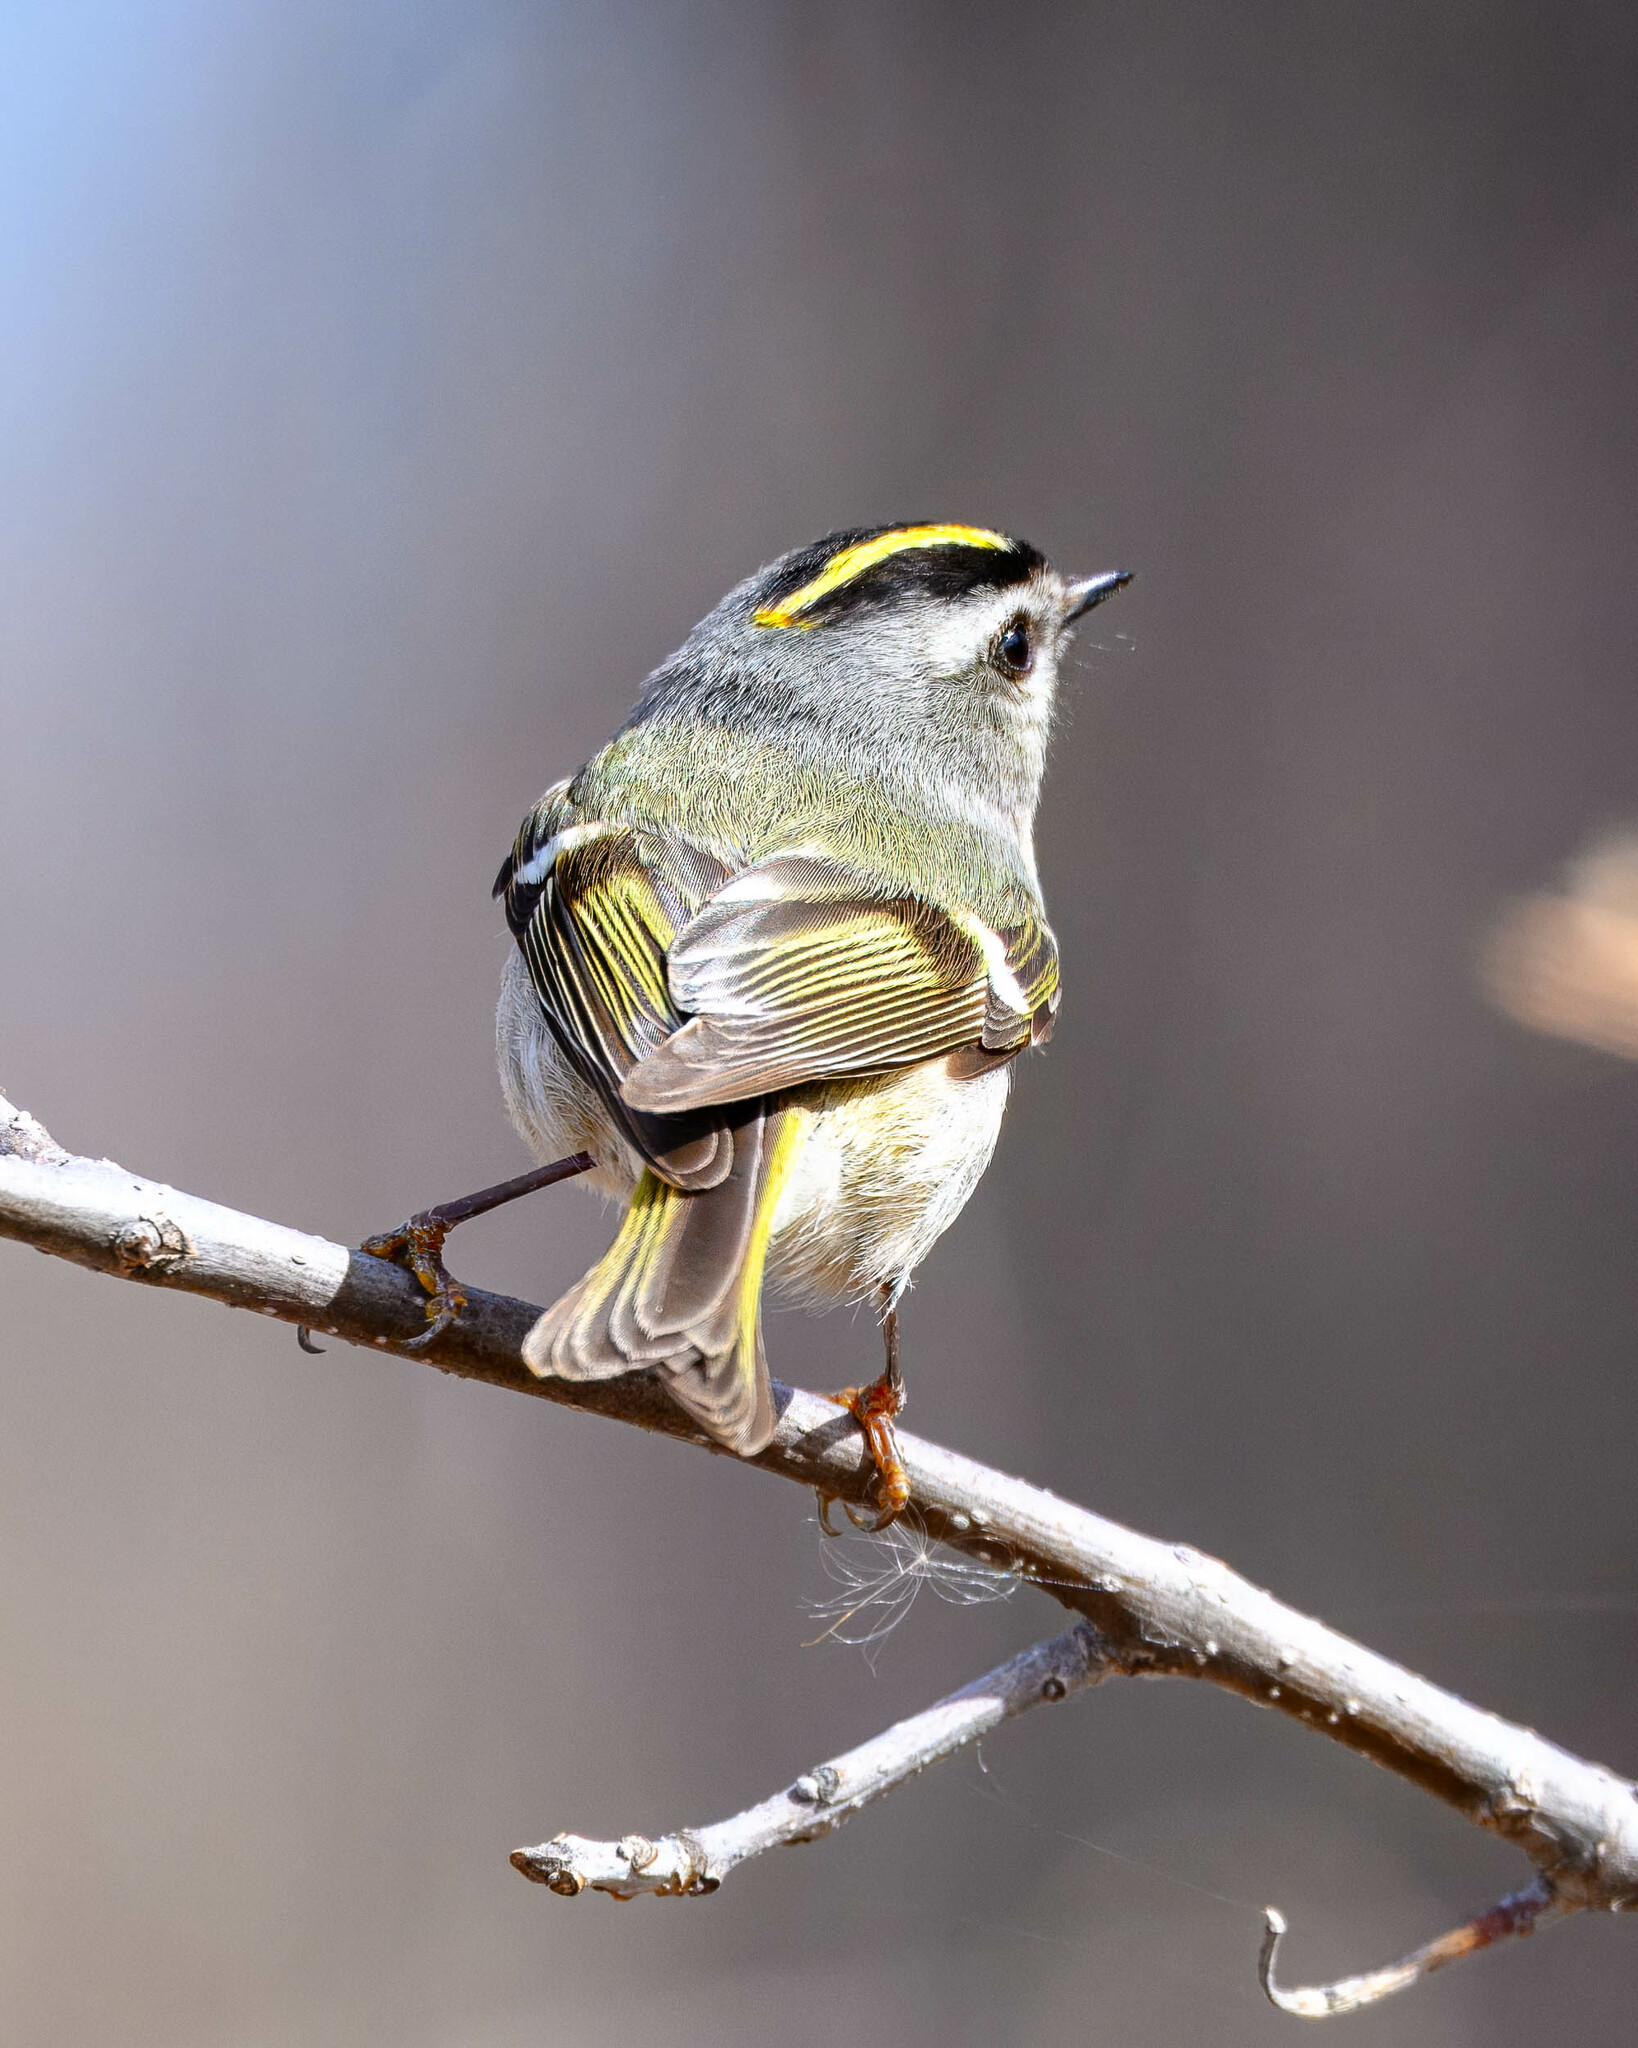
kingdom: Animalia
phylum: Chordata
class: Aves
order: Passeriformes
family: Regulidae
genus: Regulus
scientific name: Regulus satrapa
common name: Golden-crowned kinglet
